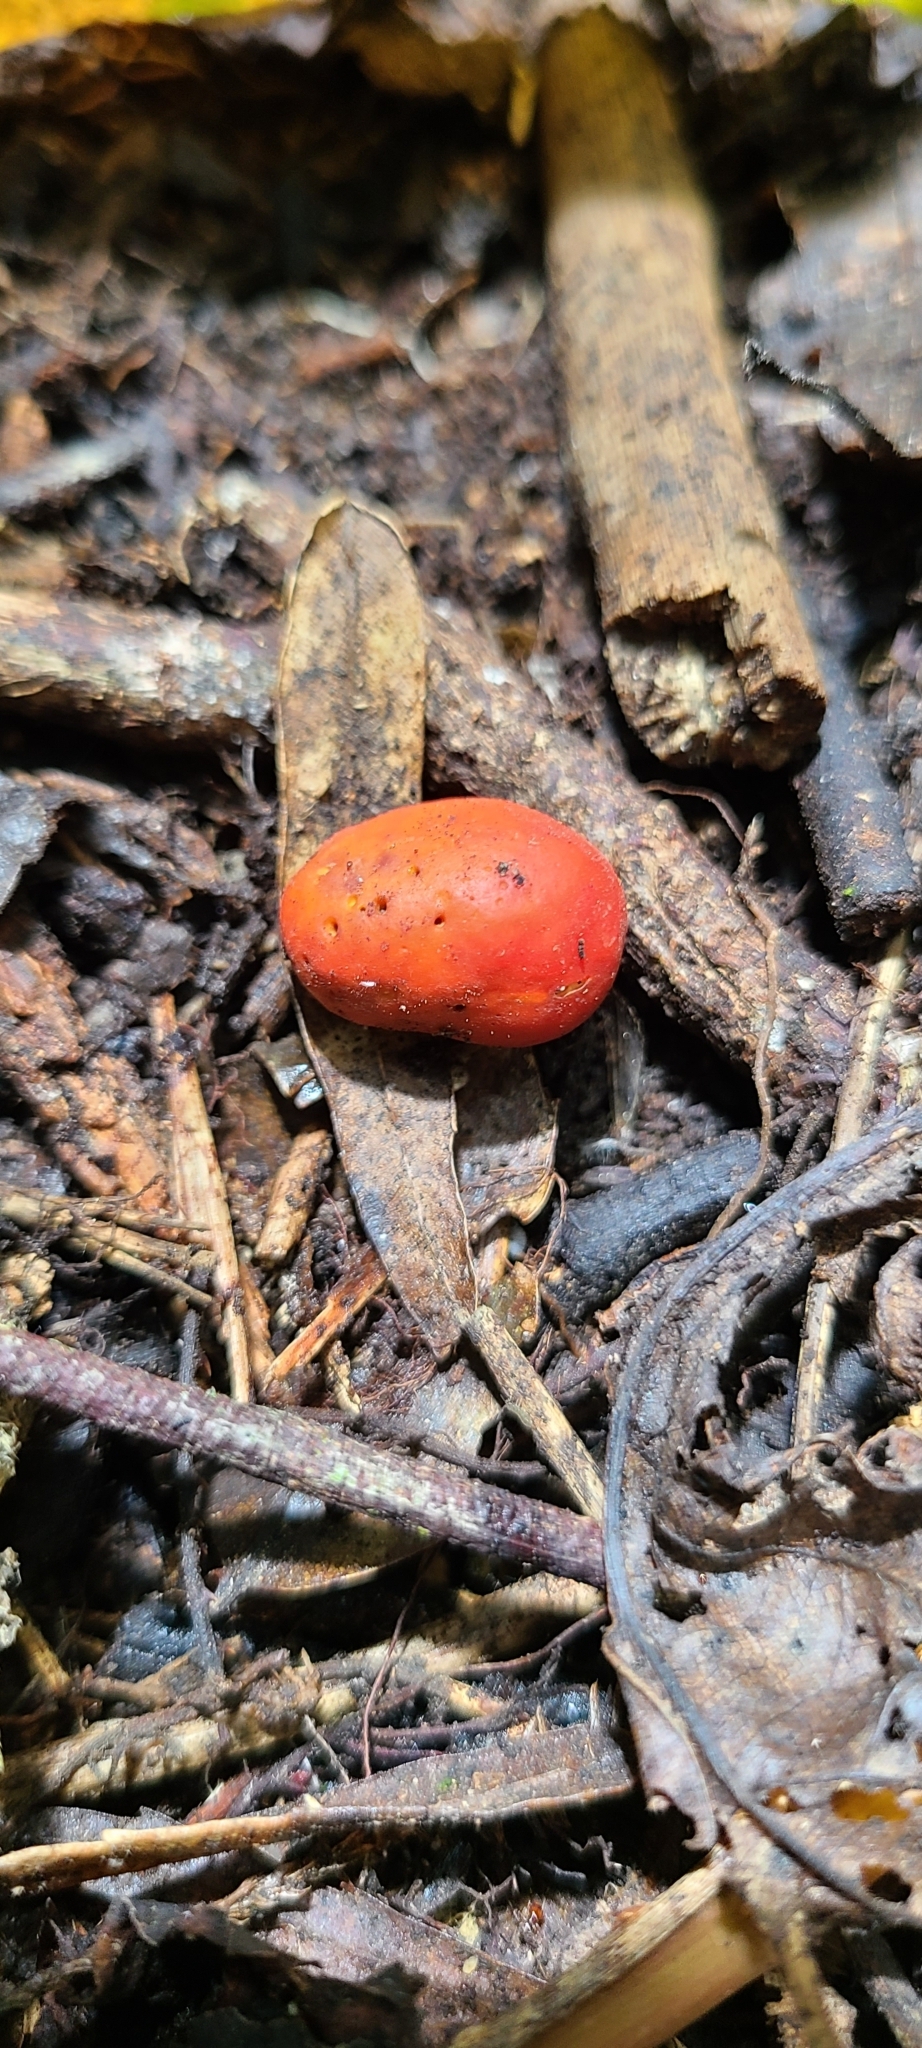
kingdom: Fungi
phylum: Ascomycota
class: Pezizomycetes
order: Pezizales
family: Pyronemataceae
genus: Paurocotylis
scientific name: Paurocotylis pila
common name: Scarlet berry truffle
